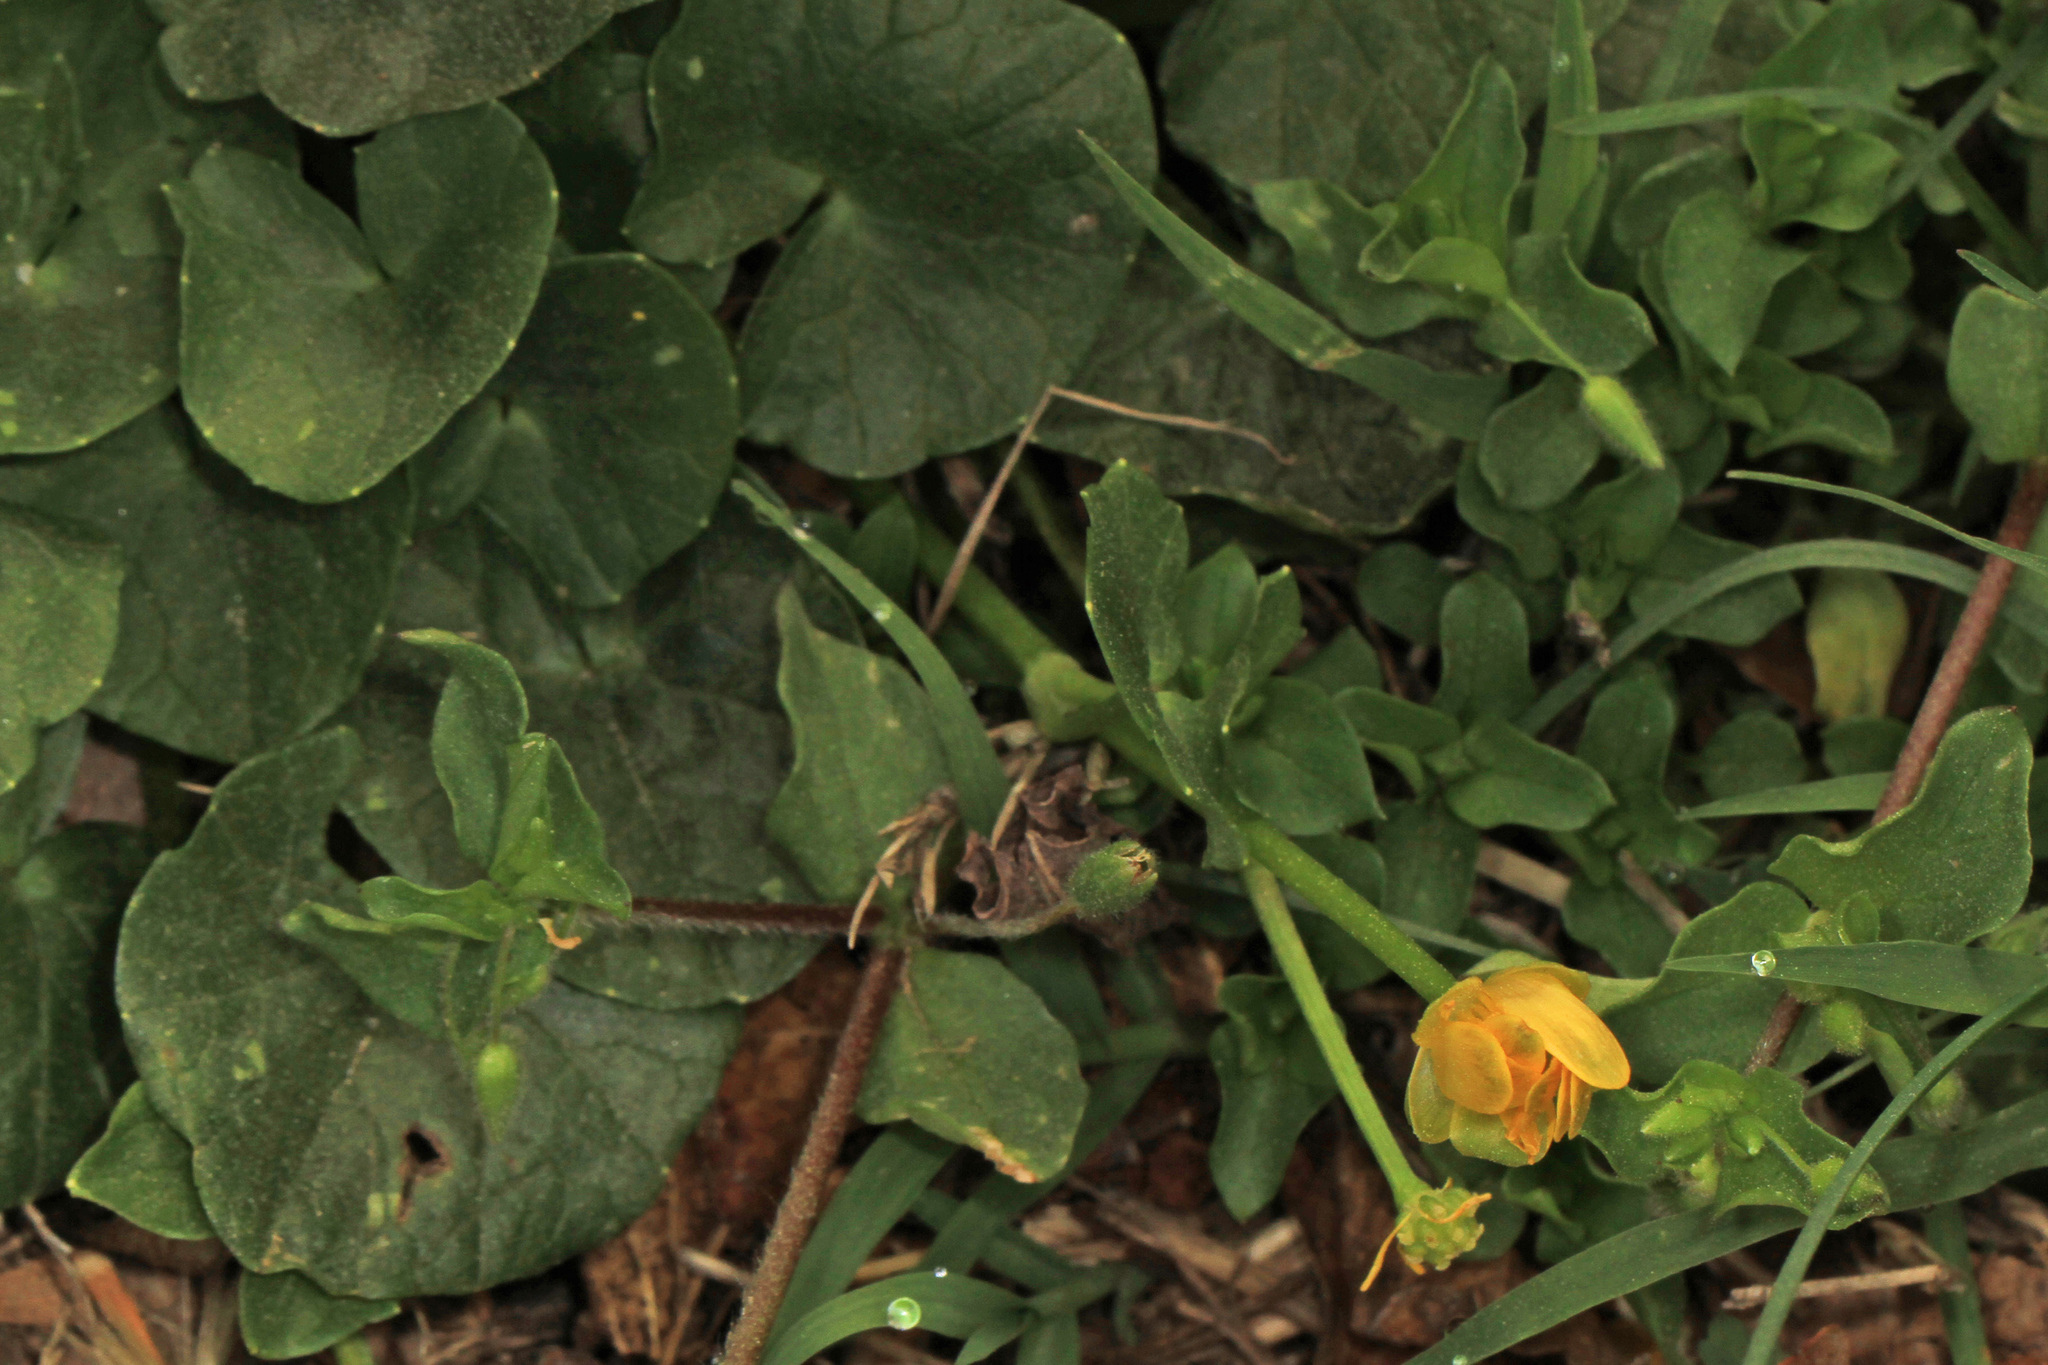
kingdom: Plantae
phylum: Tracheophyta
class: Magnoliopsida
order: Ranunculales
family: Ranunculaceae
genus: Ficaria
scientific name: Ficaria verna
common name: Lesser celandine
